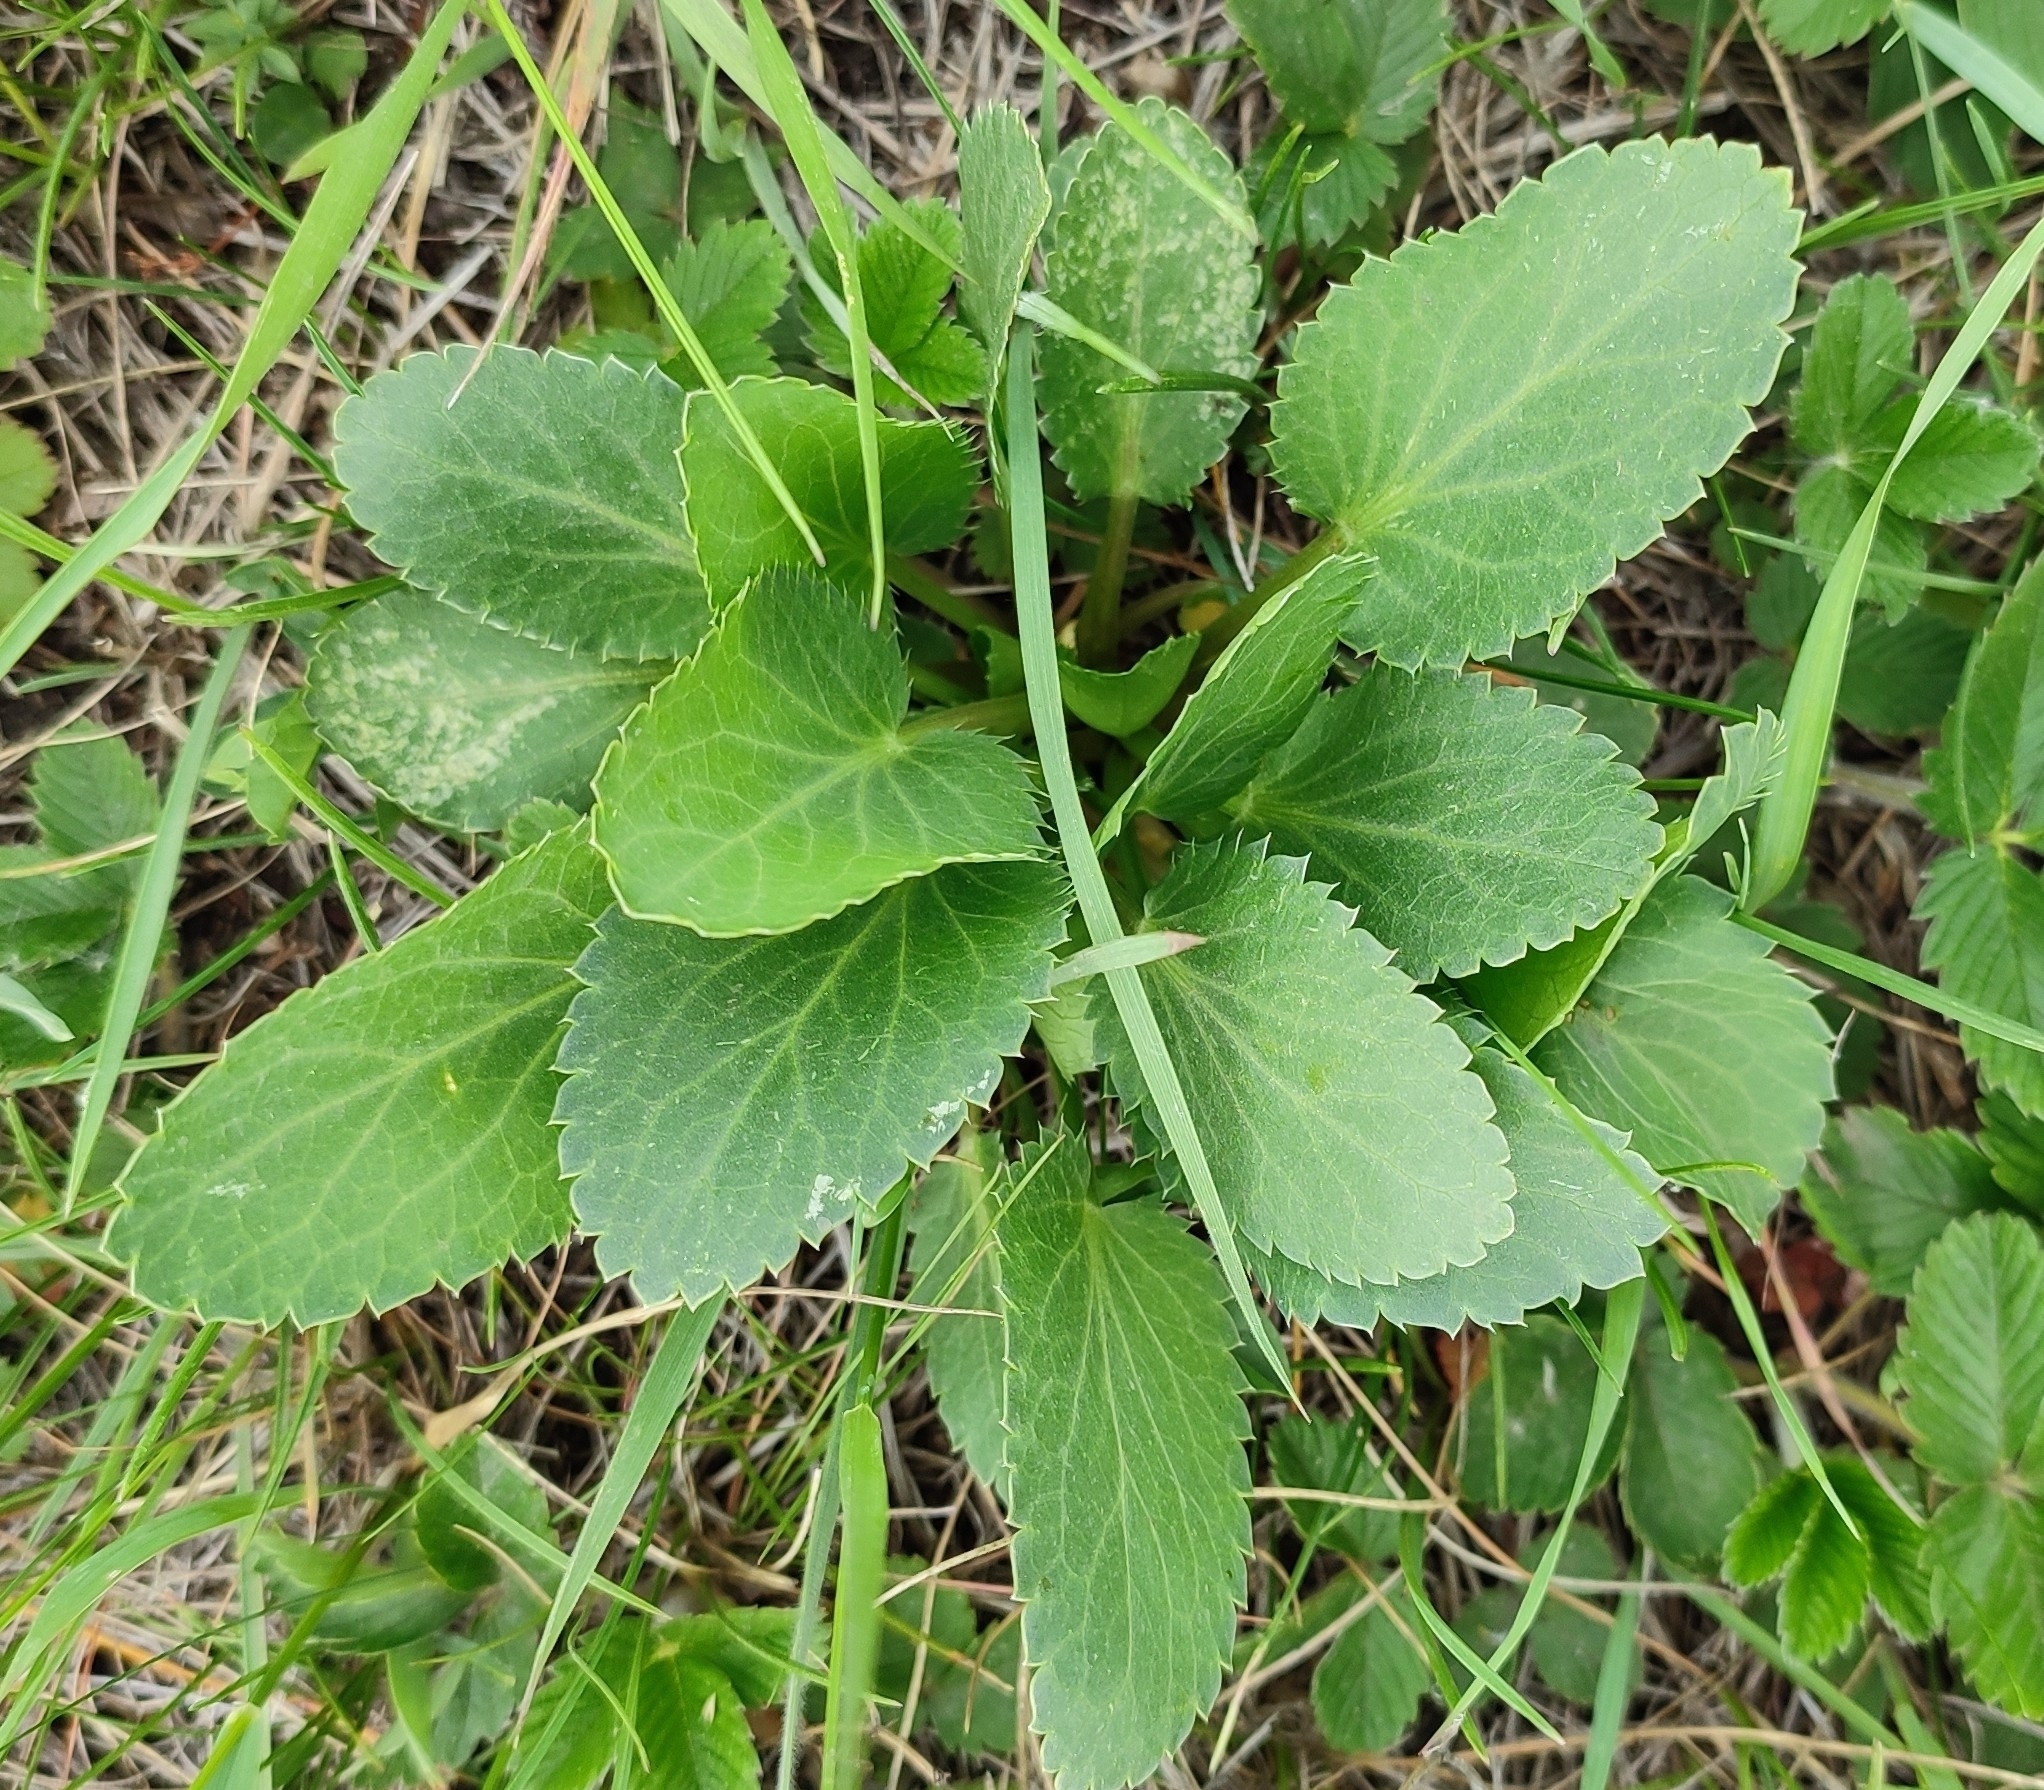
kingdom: Plantae
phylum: Tracheophyta
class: Magnoliopsida
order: Apiales
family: Apiaceae
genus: Eryngium
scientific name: Eryngium planum
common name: Blue eryngo
